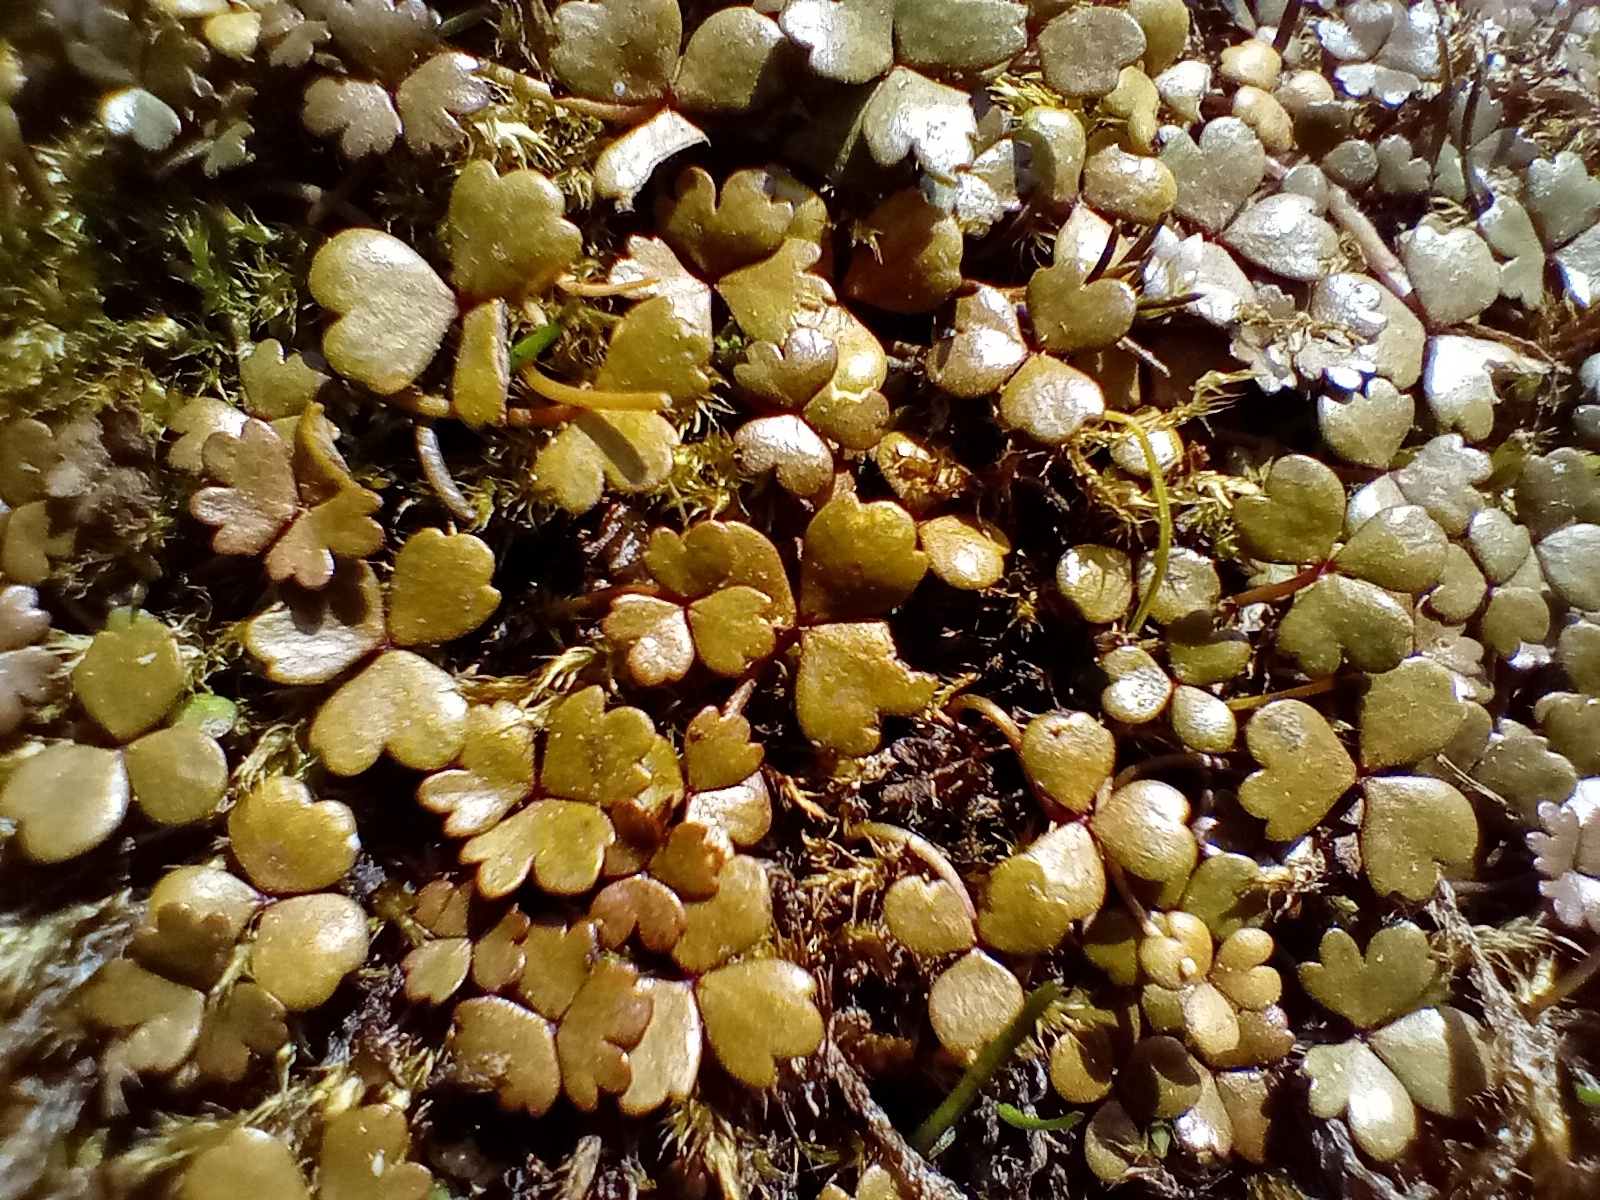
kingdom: Plantae
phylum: Tracheophyta
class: Magnoliopsida
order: Apiales
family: Araliaceae
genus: Hydrocotyle
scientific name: Hydrocotyle sulcata
